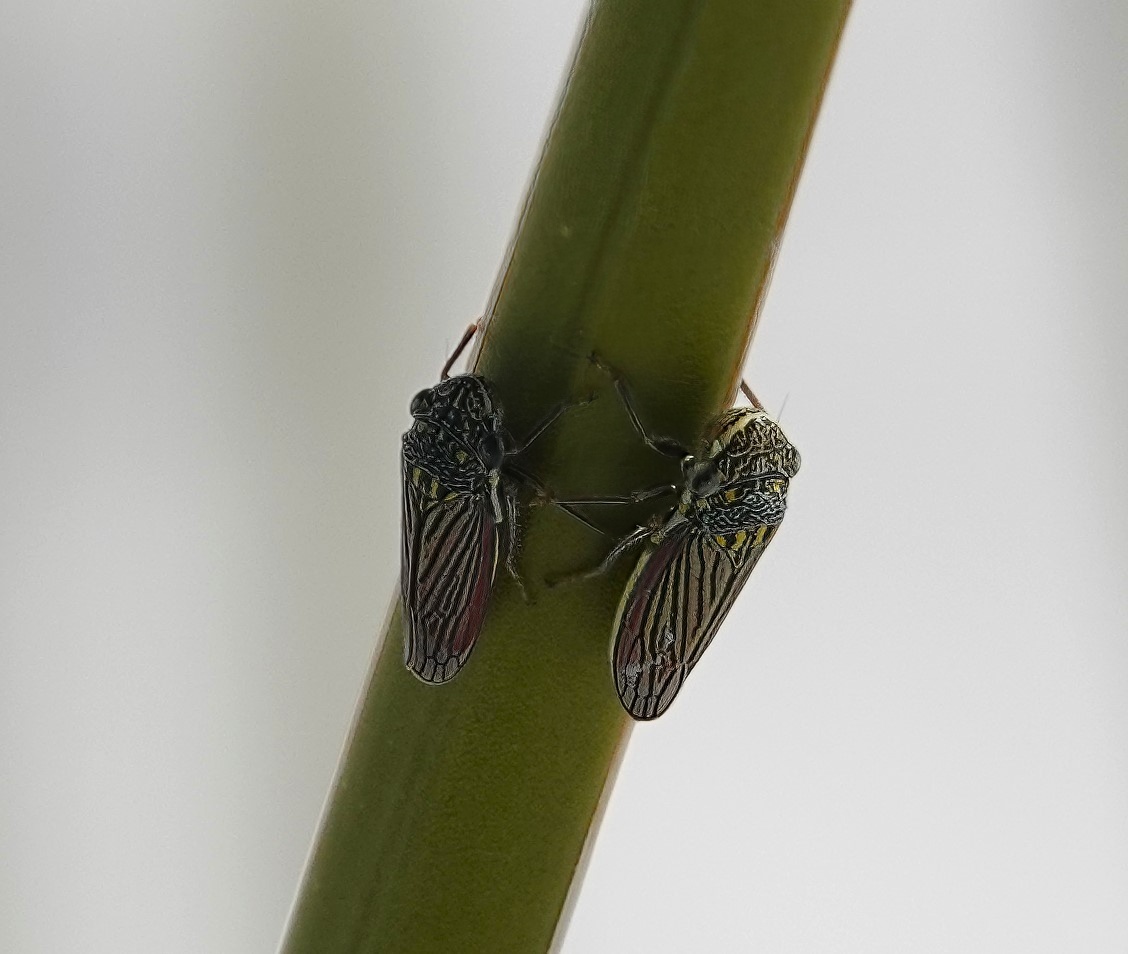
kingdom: Animalia
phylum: Arthropoda
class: Insecta
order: Hemiptera
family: Cicadellidae
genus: Cuerna
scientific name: Cuerna alba
